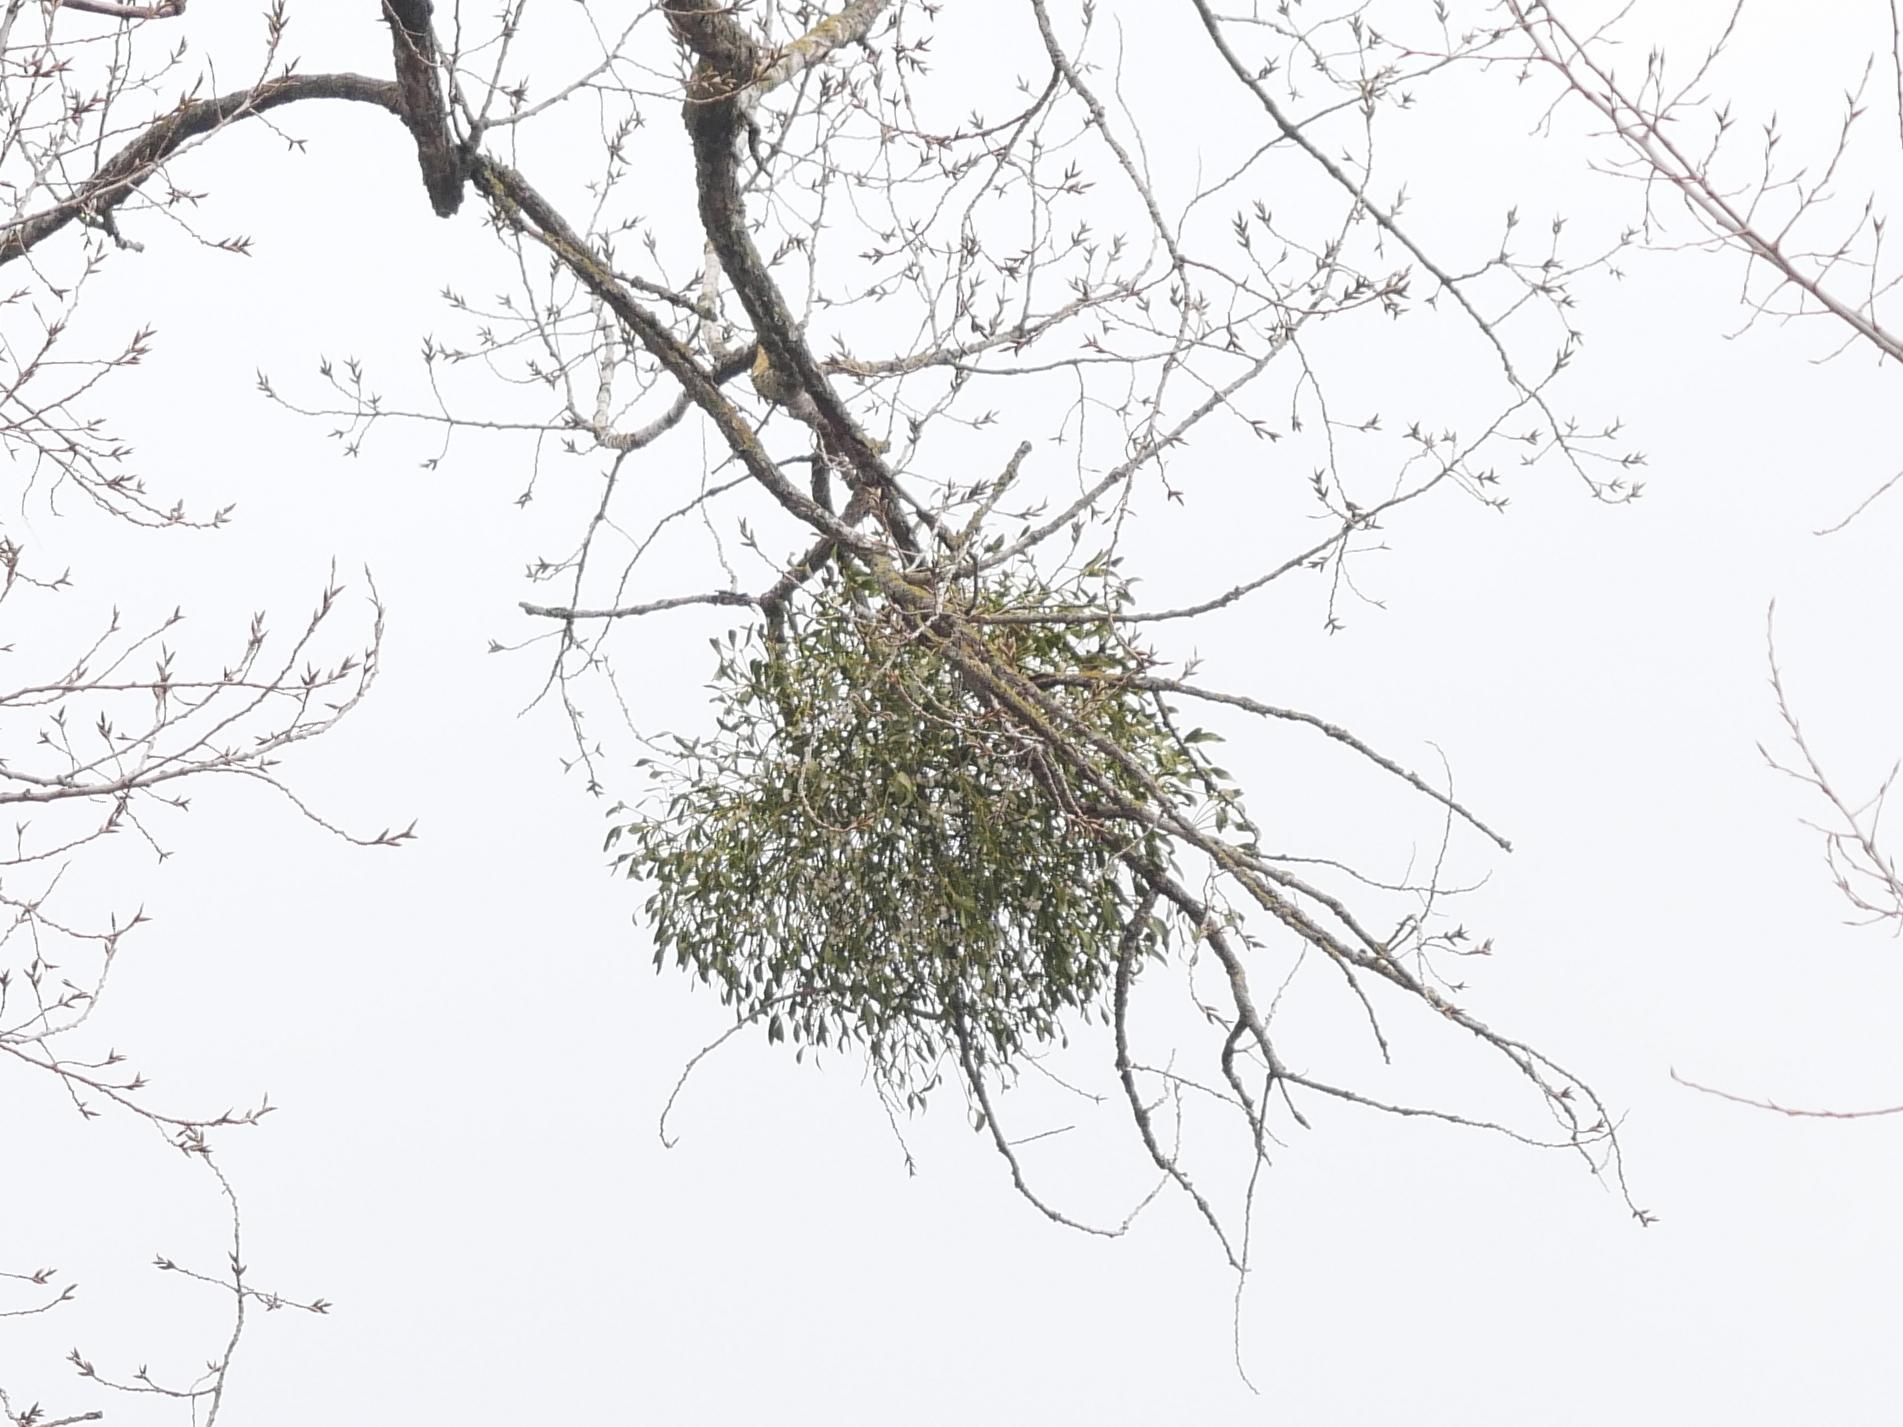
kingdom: Plantae
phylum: Tracheophyta
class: Magnoliopsida
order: Santalales
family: Viscaceae
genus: Viscum
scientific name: Viscum album
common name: Mistletoe
